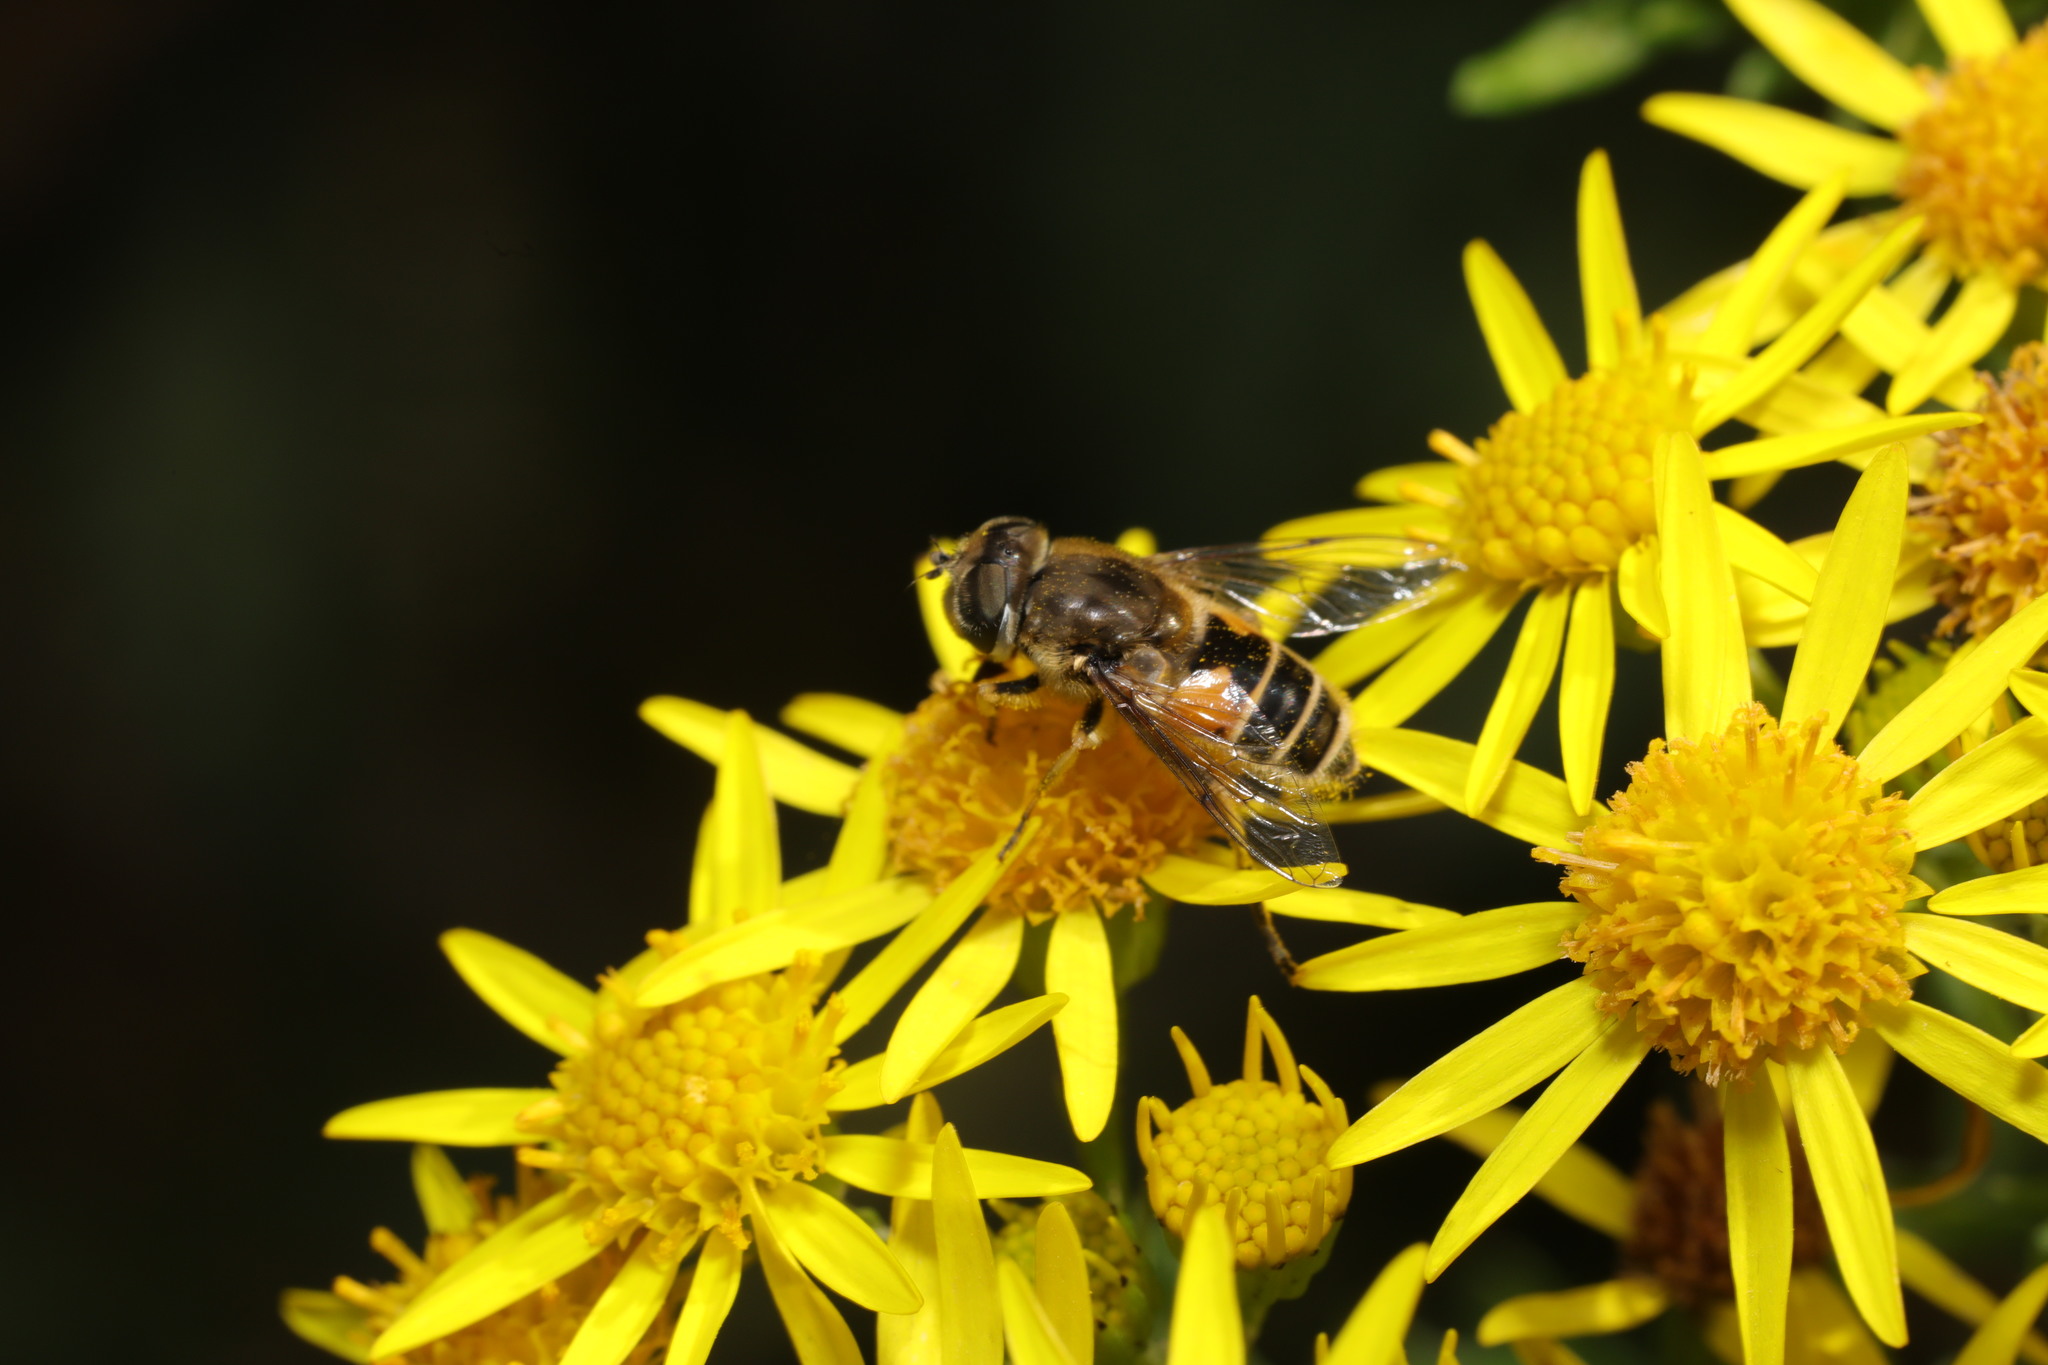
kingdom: Animalia
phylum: Arthropoda
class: Insecta
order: Diptera
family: Syrphidae
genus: Eristalis
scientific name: Eristalis arbustorum
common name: Hover fly
